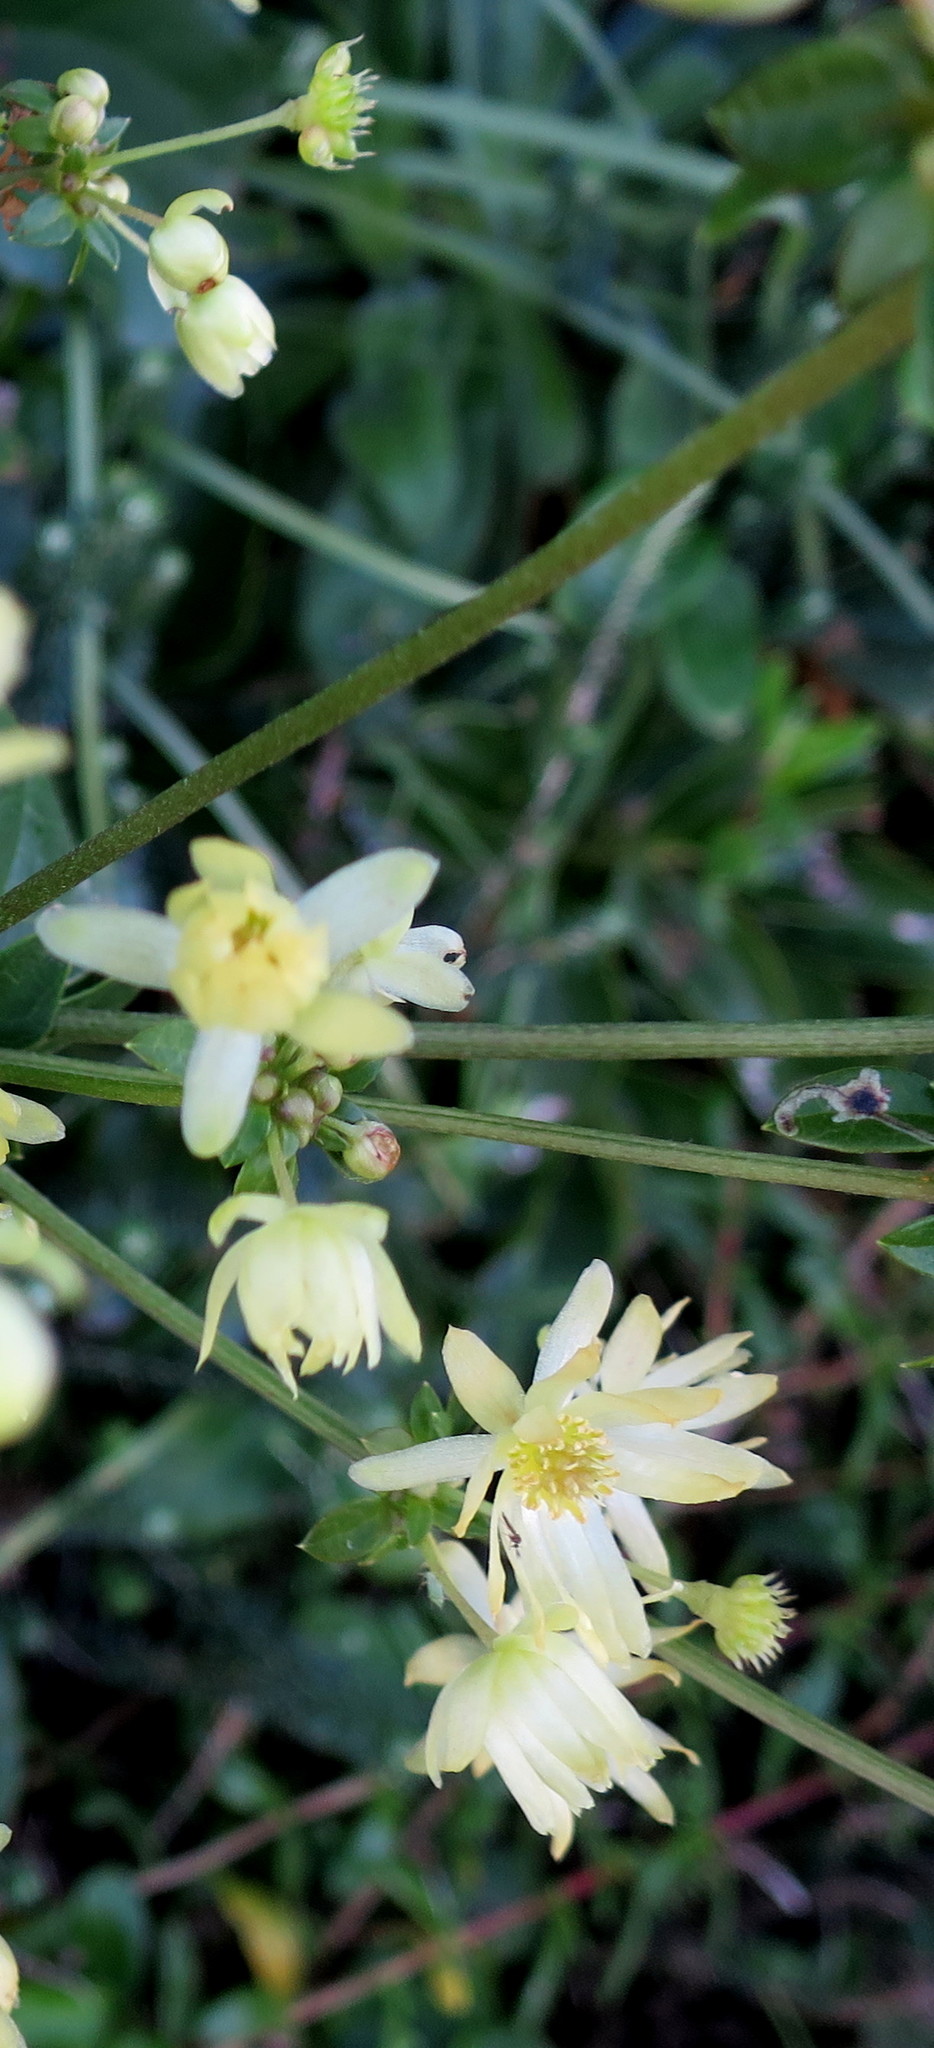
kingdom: Plantae
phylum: Tracheophyta
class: Magnoliopsida
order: Ranunculales
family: Ranunculaceae
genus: Knowltonia
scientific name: Knowltonia vesicatoria
